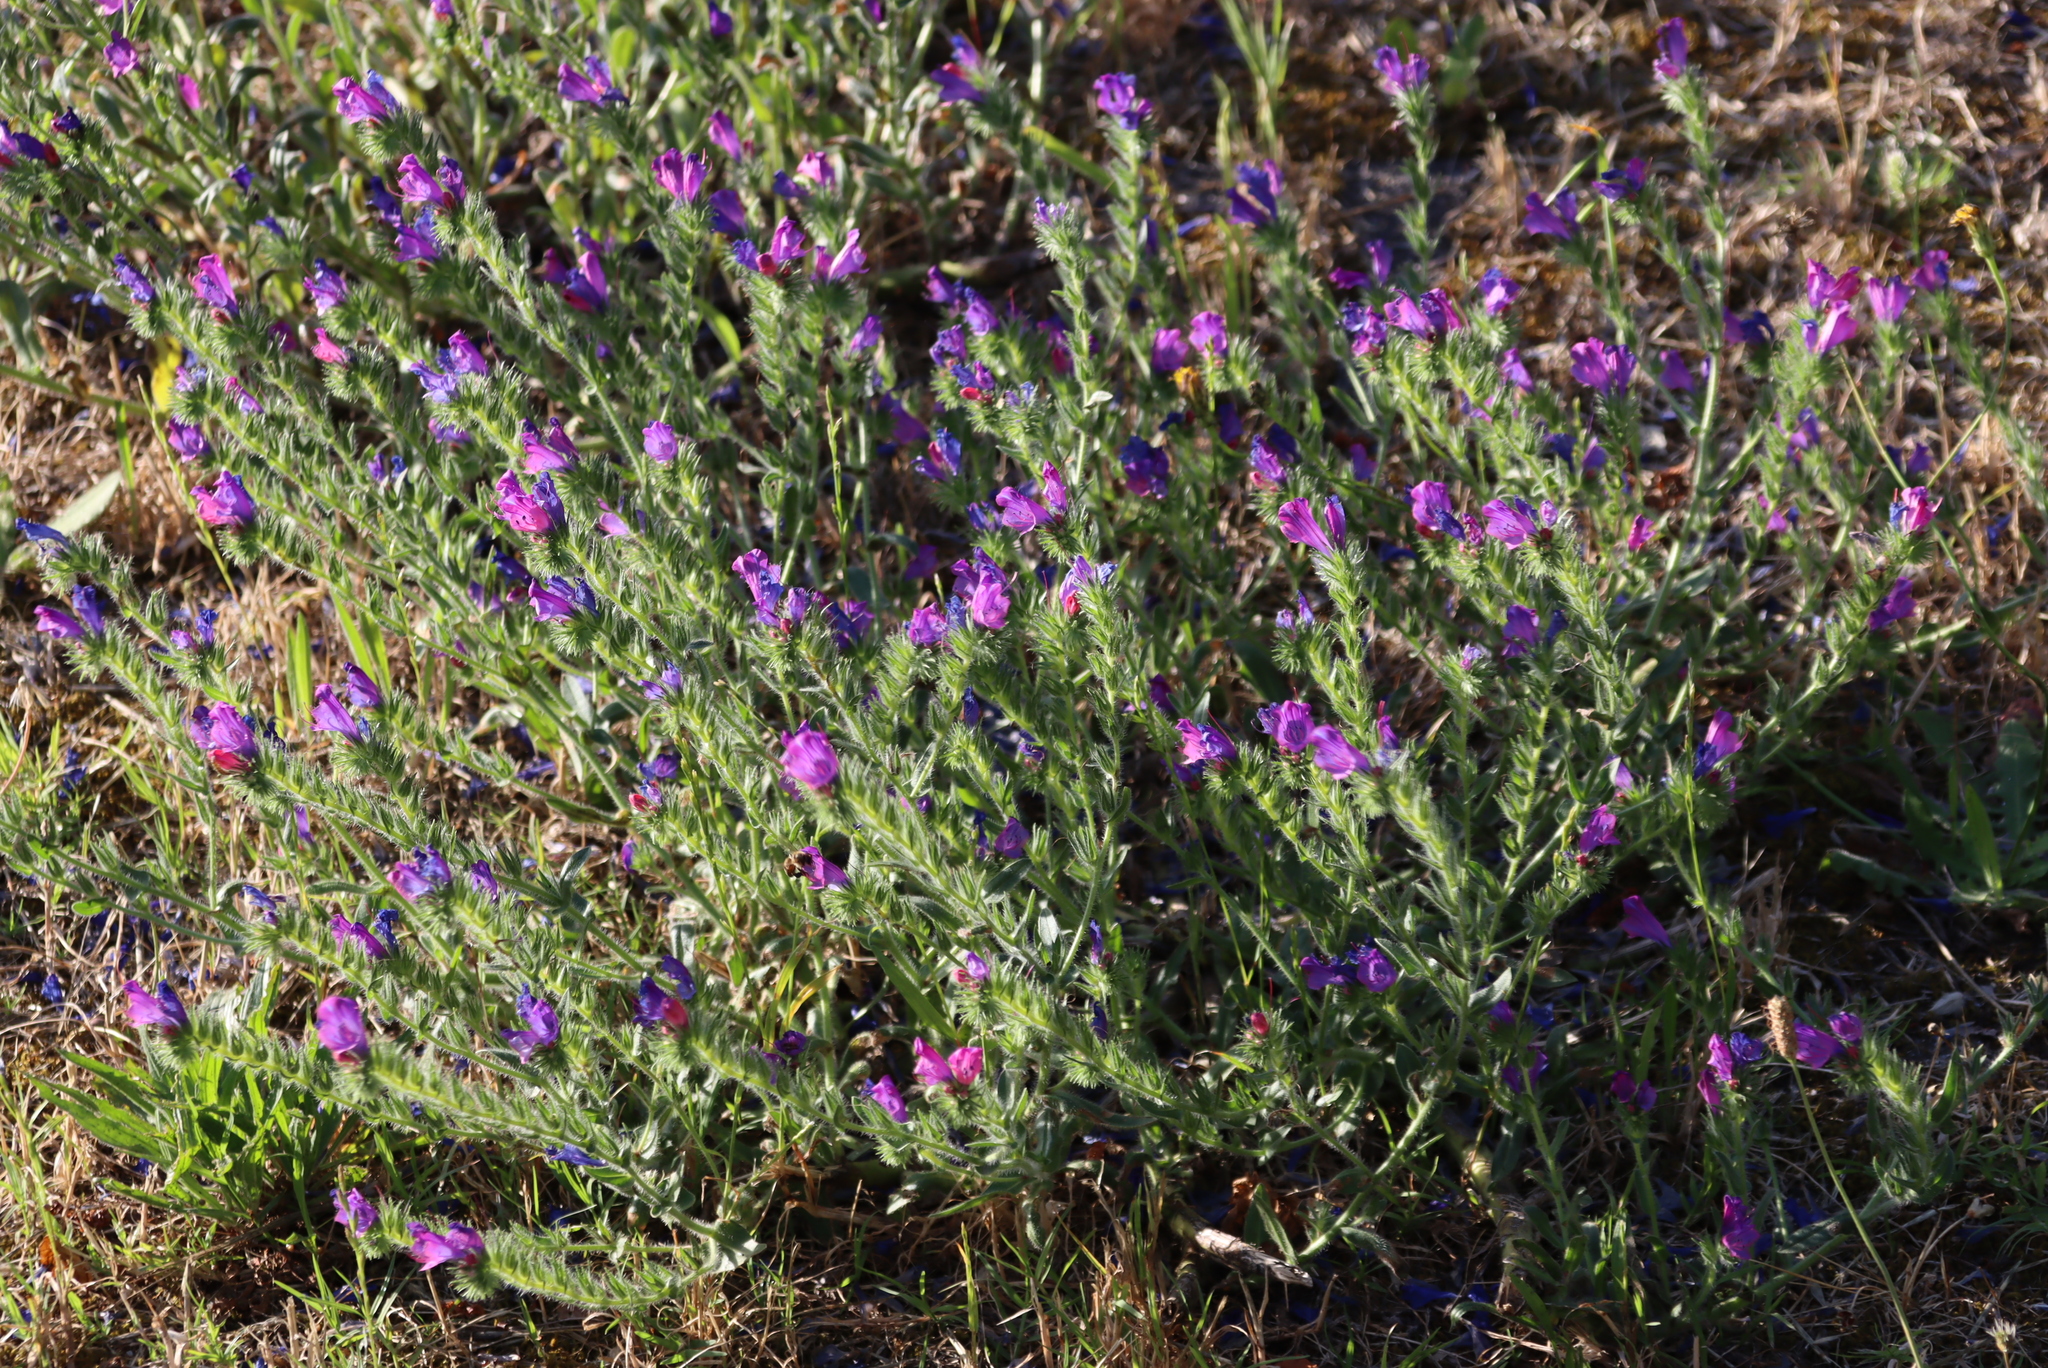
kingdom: Plantae
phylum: Tracheophyta
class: Magnoliopsida
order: Boraginales
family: Boraginaceae
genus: Echium
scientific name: Echium plantagineum
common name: Purple viper's-bugloss
